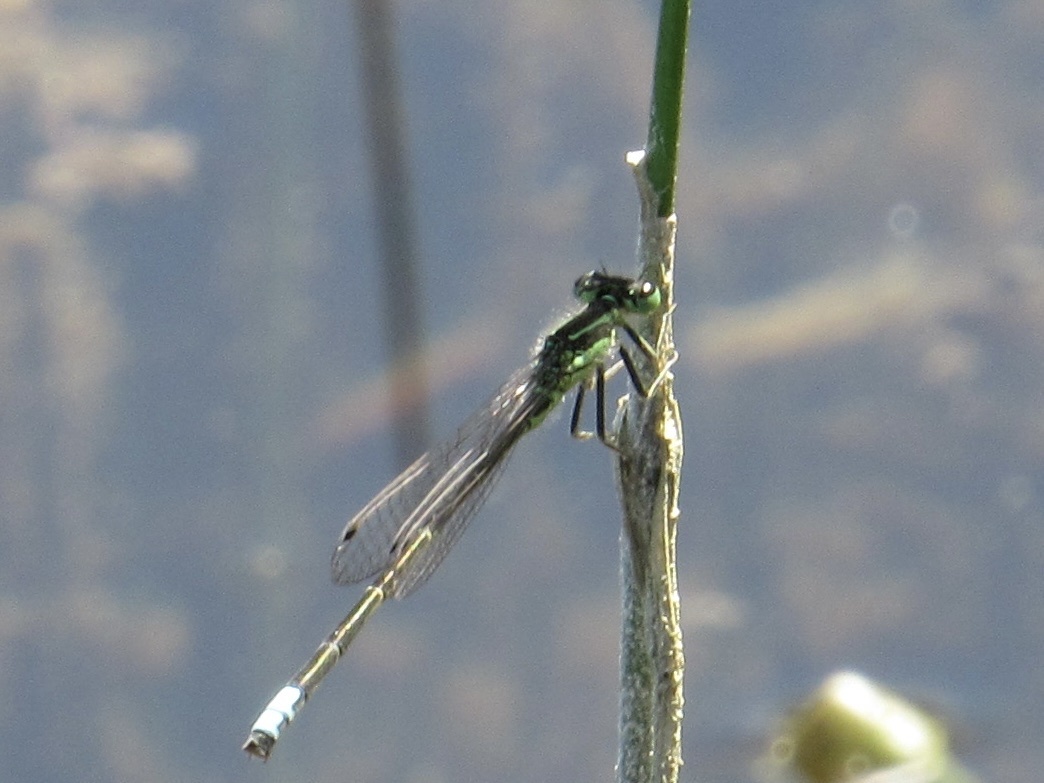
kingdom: Animalia
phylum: Arthropoda
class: Insecta
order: Odonata
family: Coenagrionidae
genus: Ischnura
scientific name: Ischnura verticalis
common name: Eastern forktail
